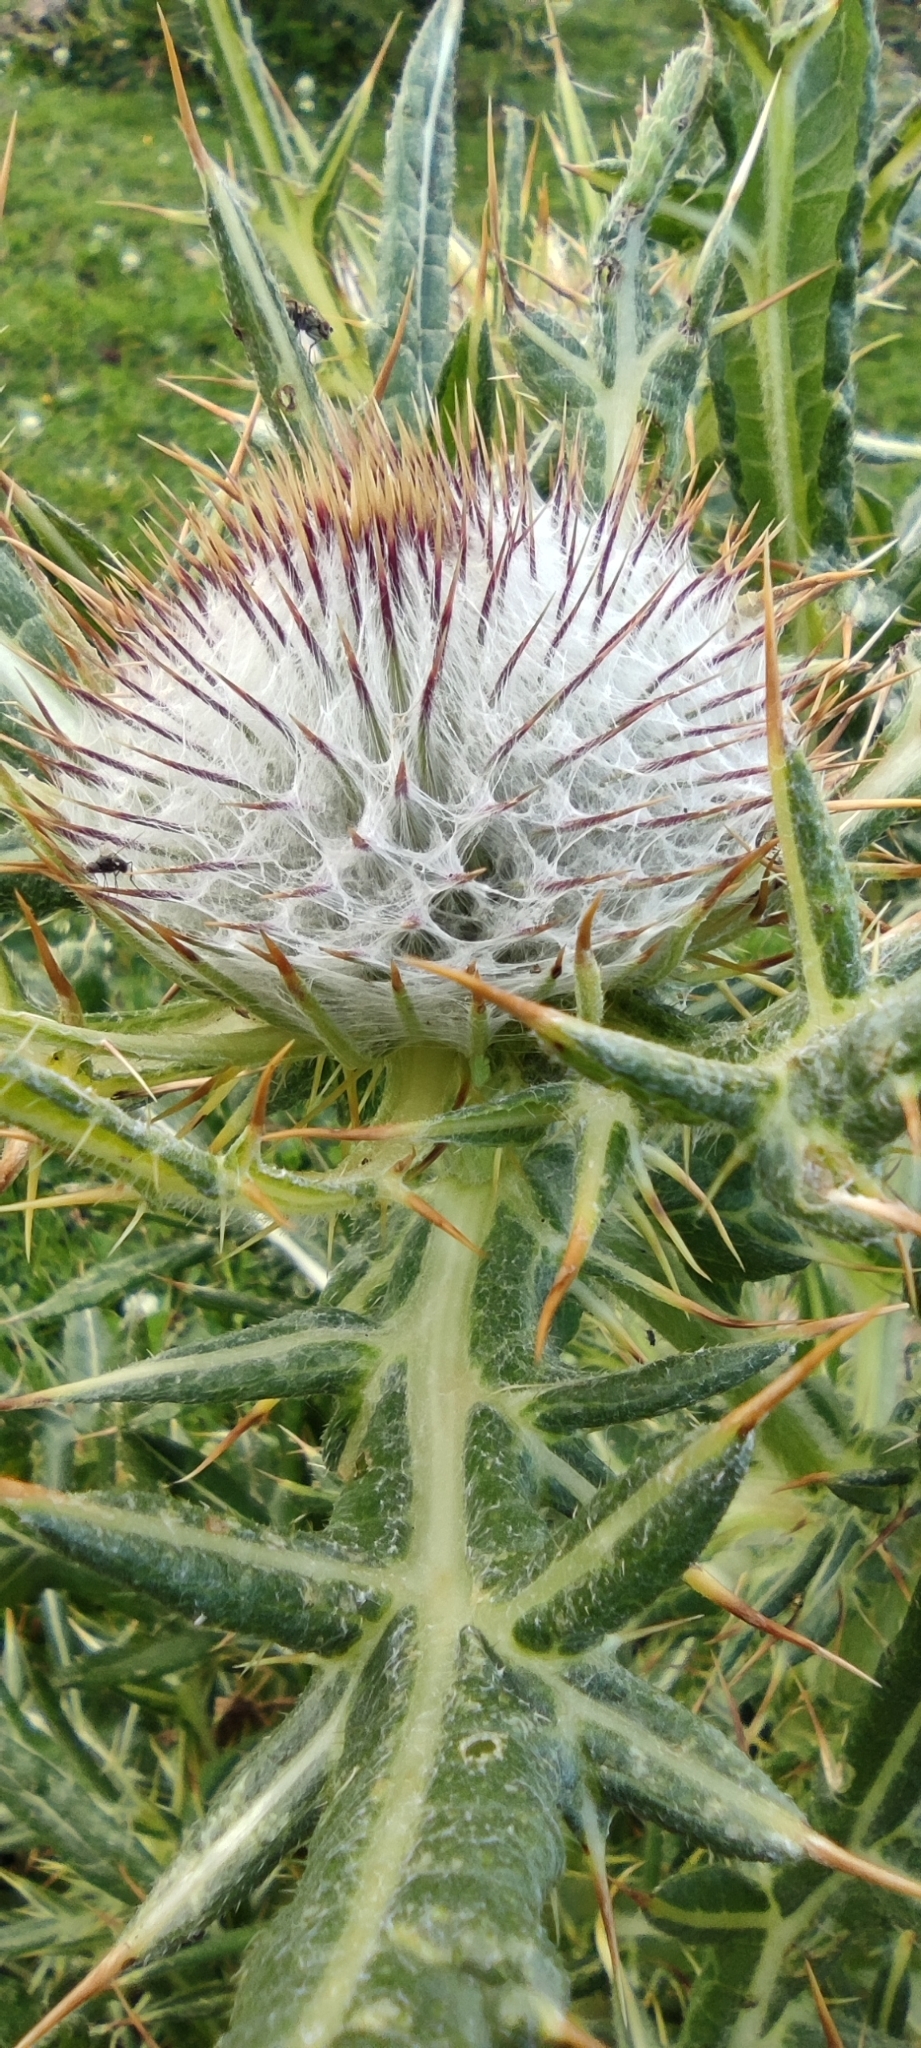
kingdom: Plantae
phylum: Tracheophyta
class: Magnoliopsida
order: Asterales
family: Asteraceae
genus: Lophiolepis
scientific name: Lophiolepis eriophora
